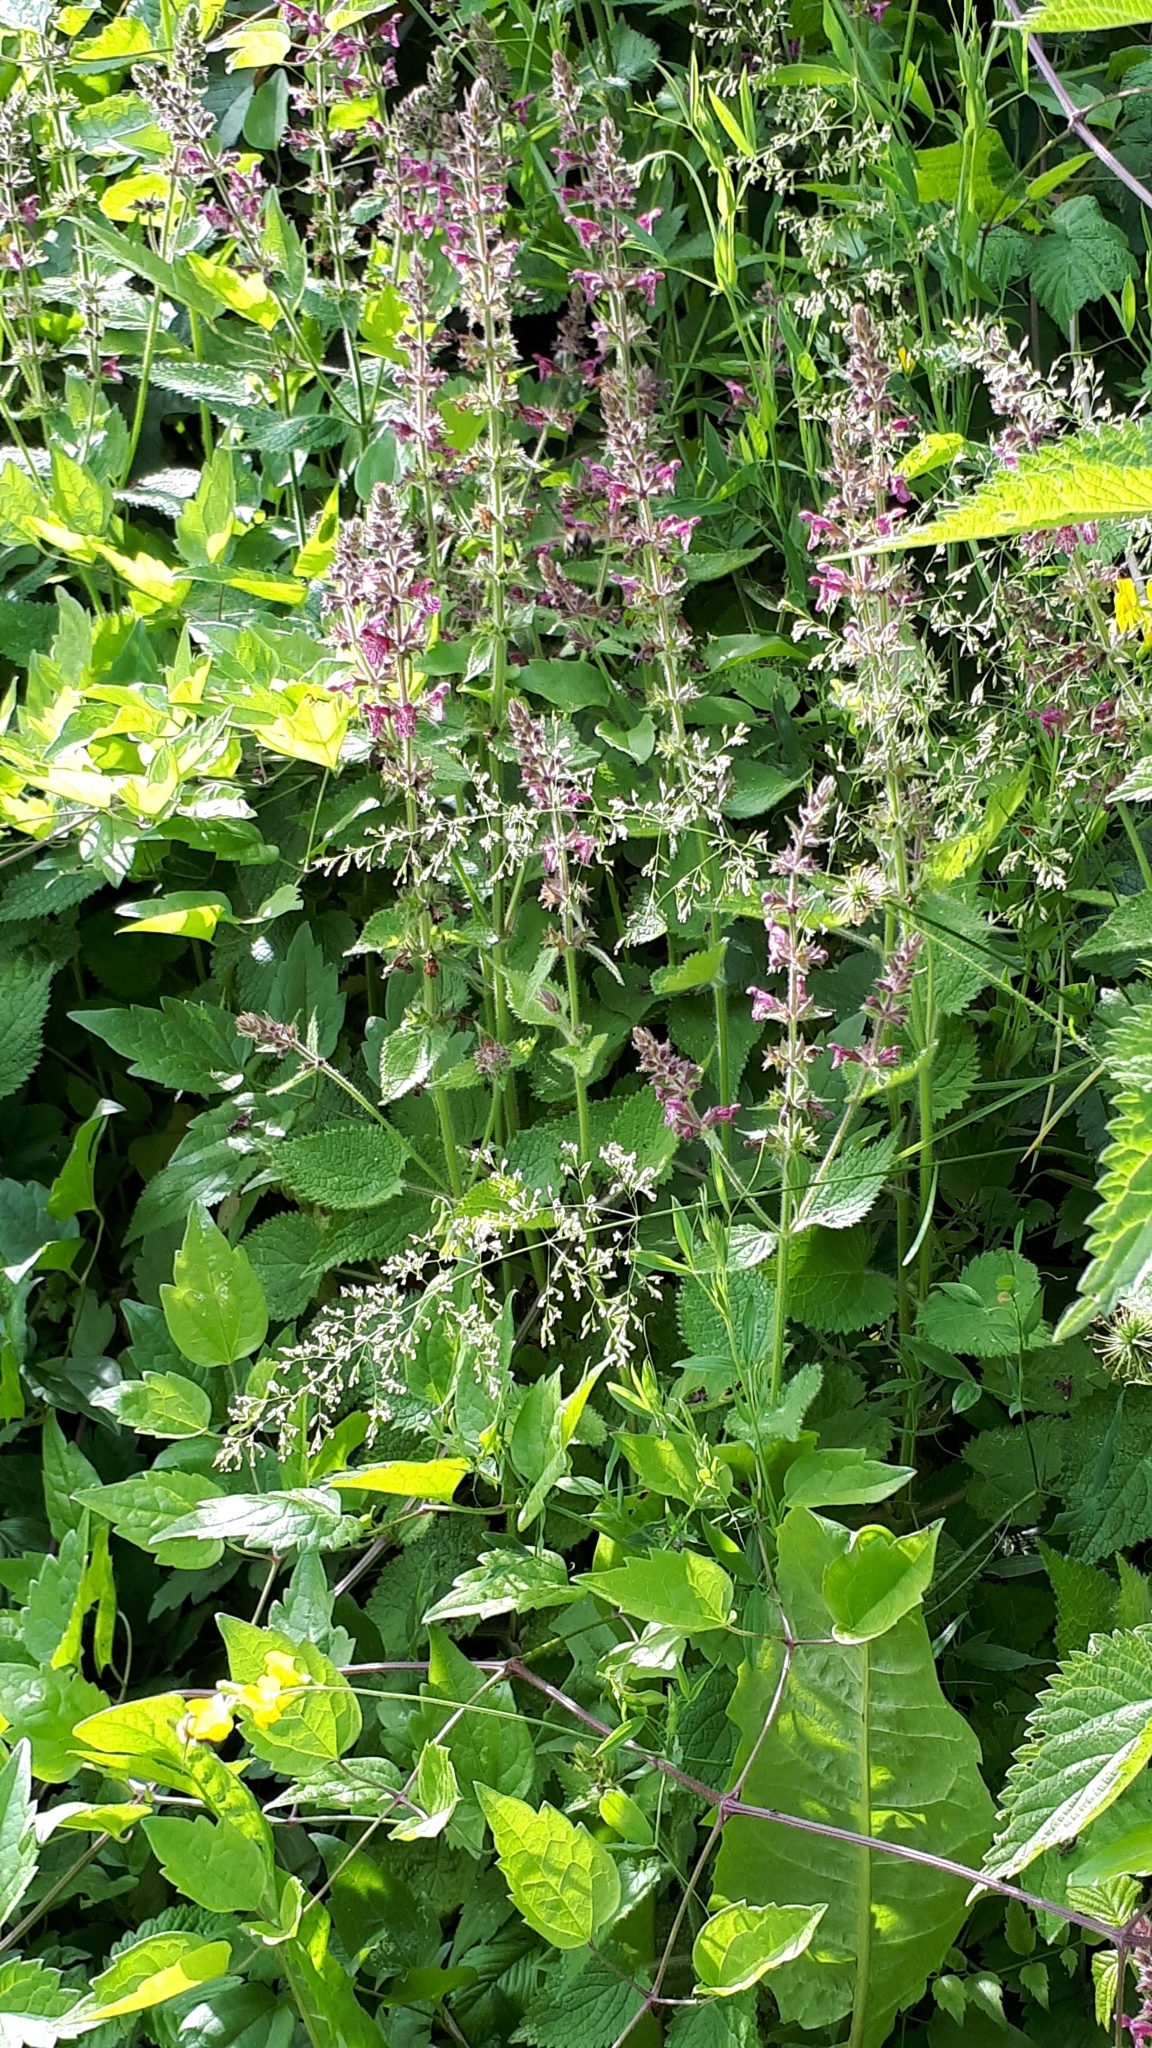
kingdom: Plantae
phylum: Tracheophyta
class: Magnoliopsida
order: Lamiales
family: Lamiaceae
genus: Stachys
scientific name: Stachys sylvatica
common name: Hedge woundwort
